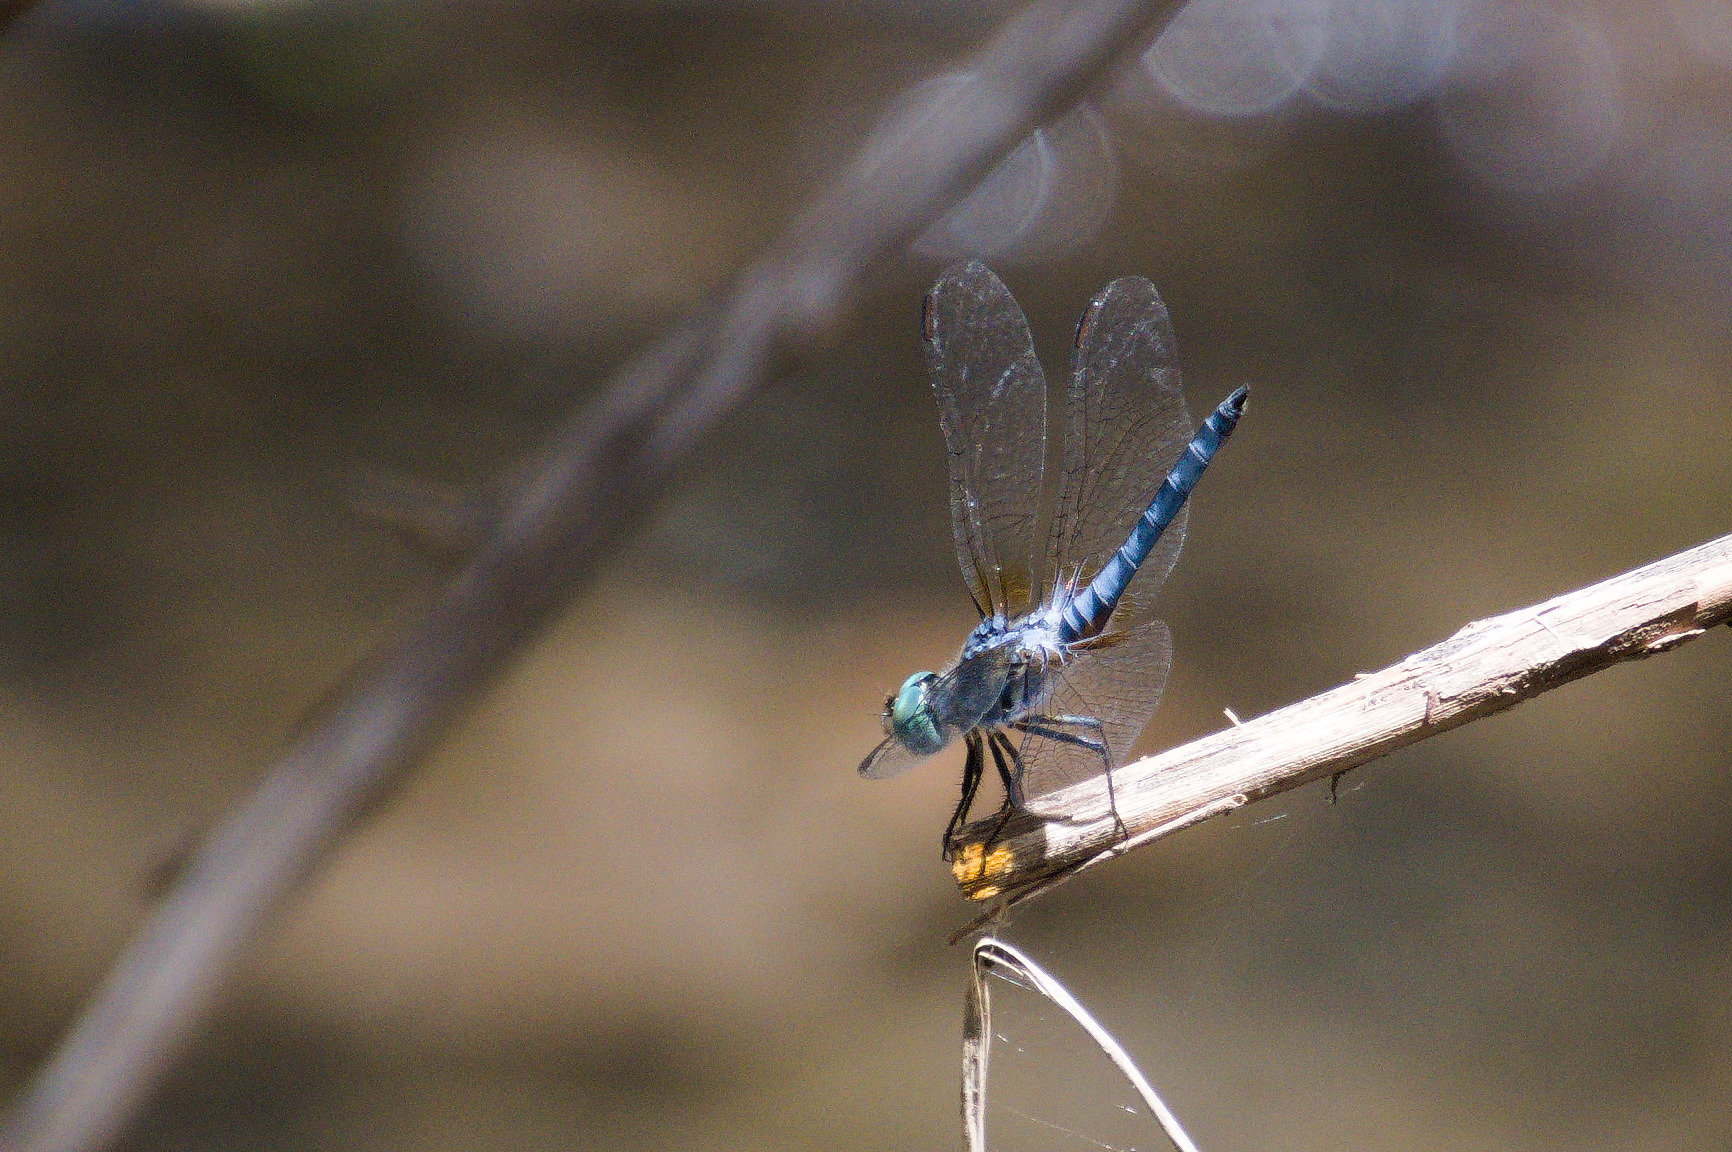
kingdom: Animalia
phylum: Arthropoda
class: Insecta
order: Odonata
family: Libellulidae
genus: Pachydiplax
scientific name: Pachydiplax longipennis
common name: Blue dasher
